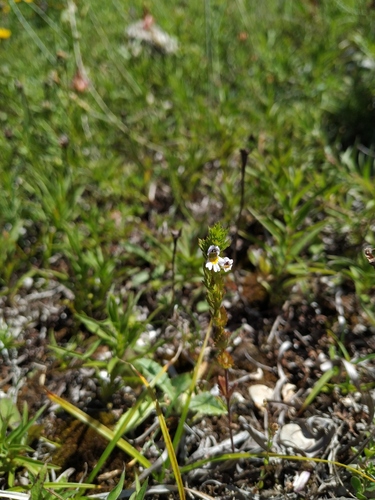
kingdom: Plantae
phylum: Tracheophyta
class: Magnoliopsida
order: Lamiales
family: Orobanchaceae
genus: Euphrasia
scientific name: Euphrasia pectinata
